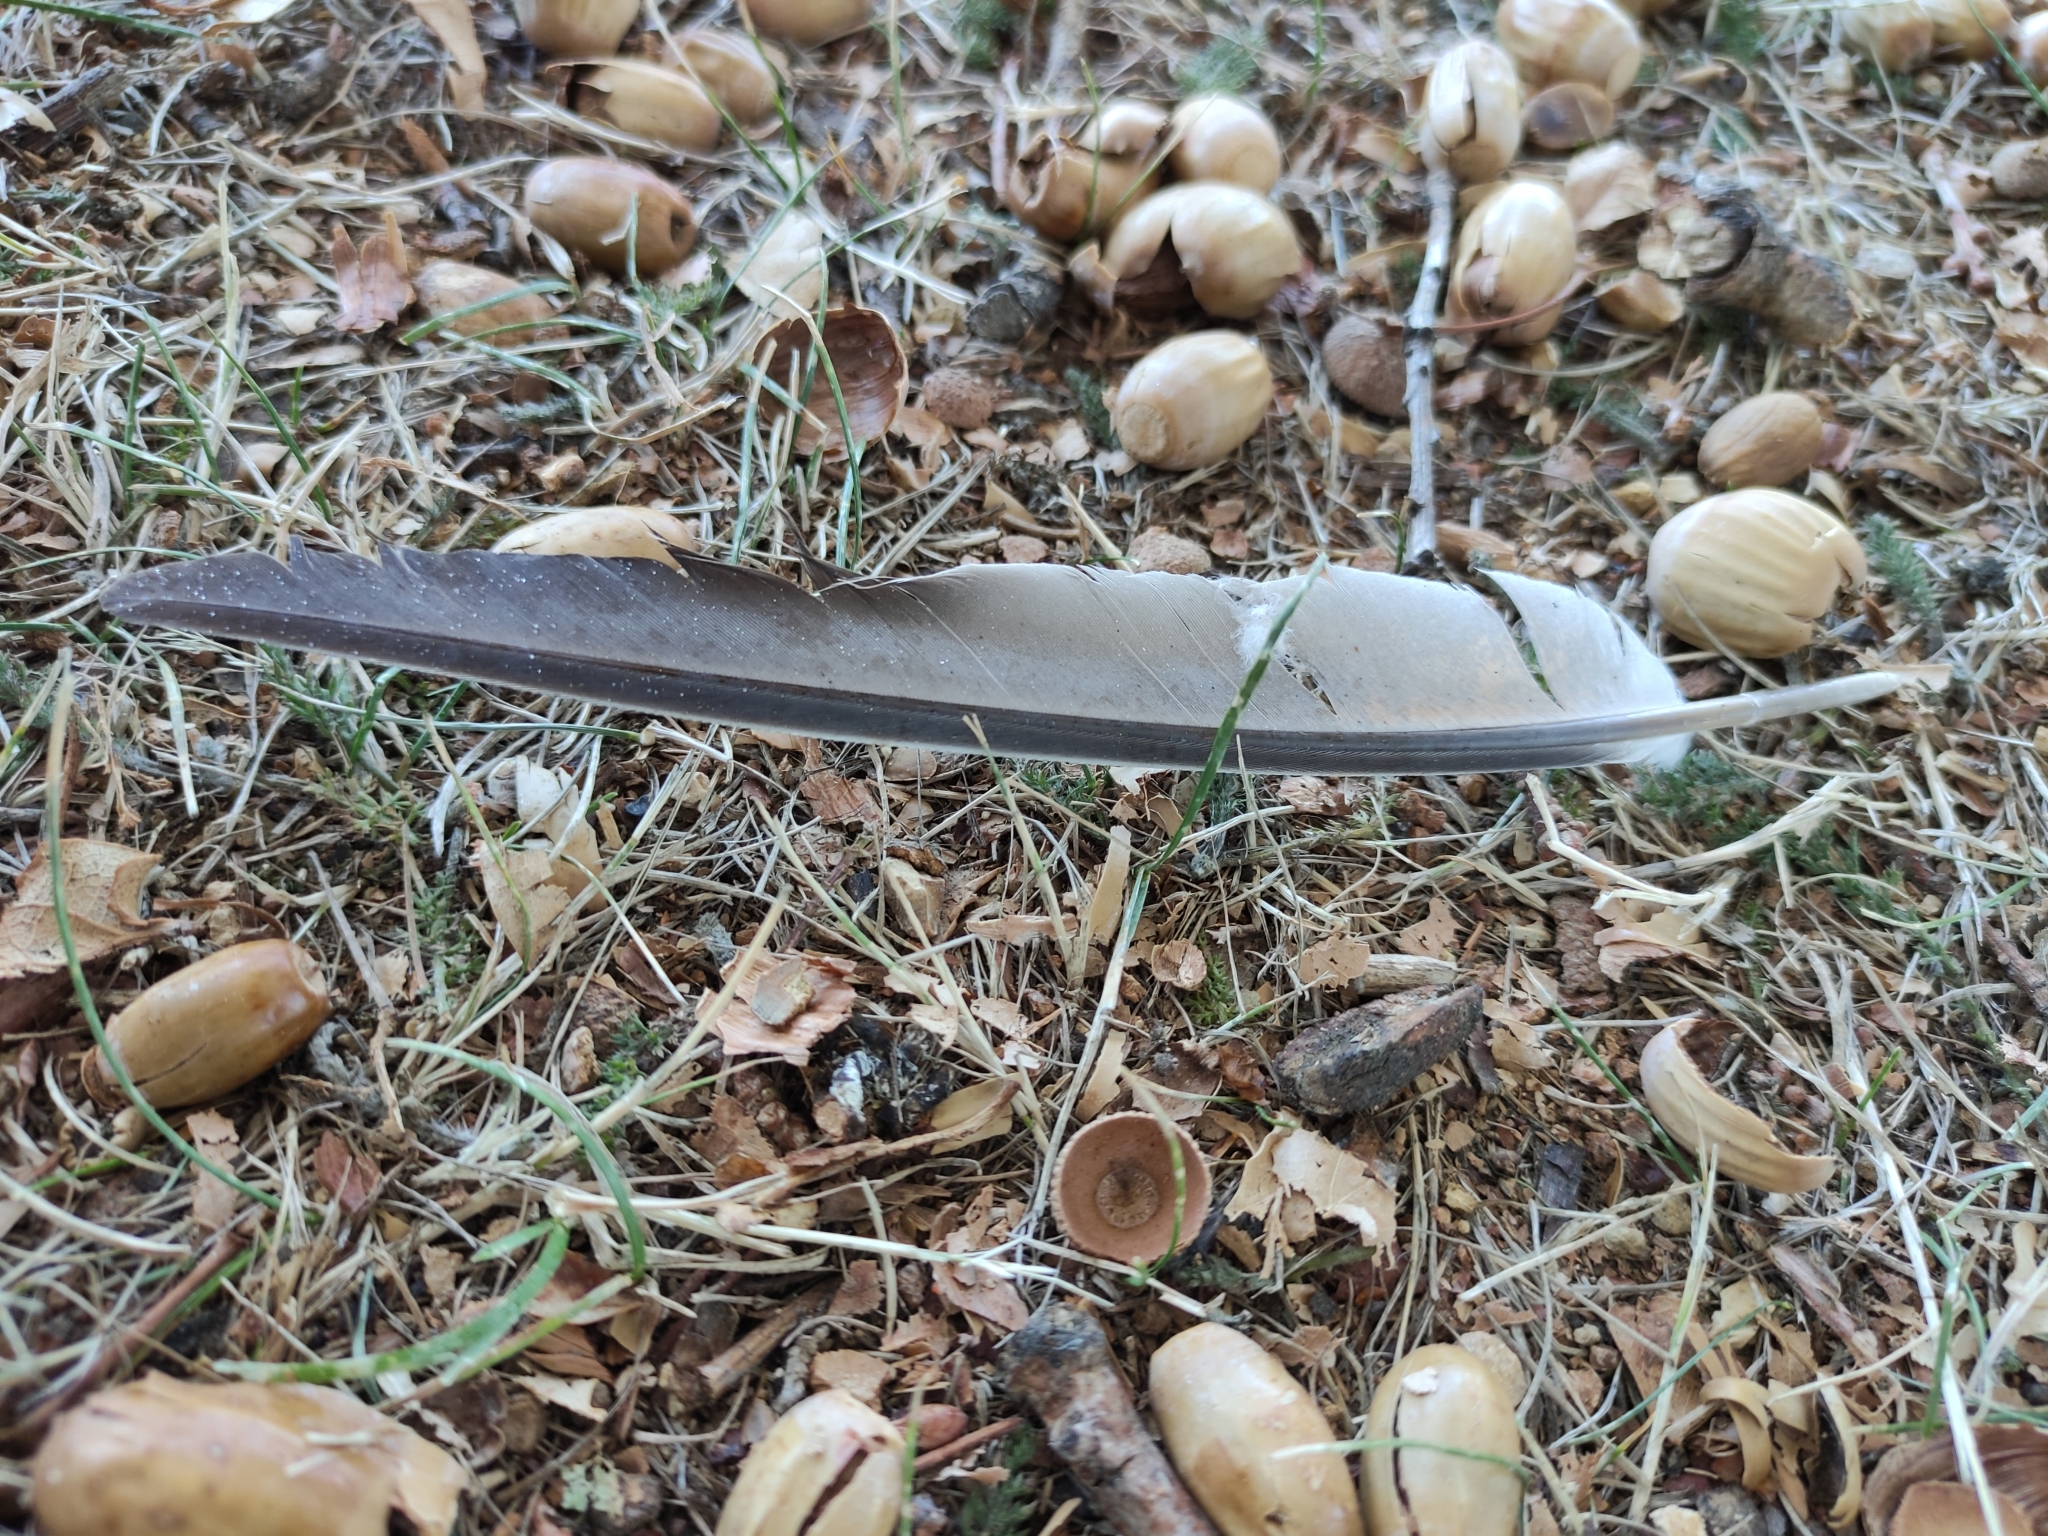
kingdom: Animalia
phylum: Chordata
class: Aves
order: Columbiformes
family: Columbidae
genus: Columba
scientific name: Columba livia
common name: Rock pigeon
